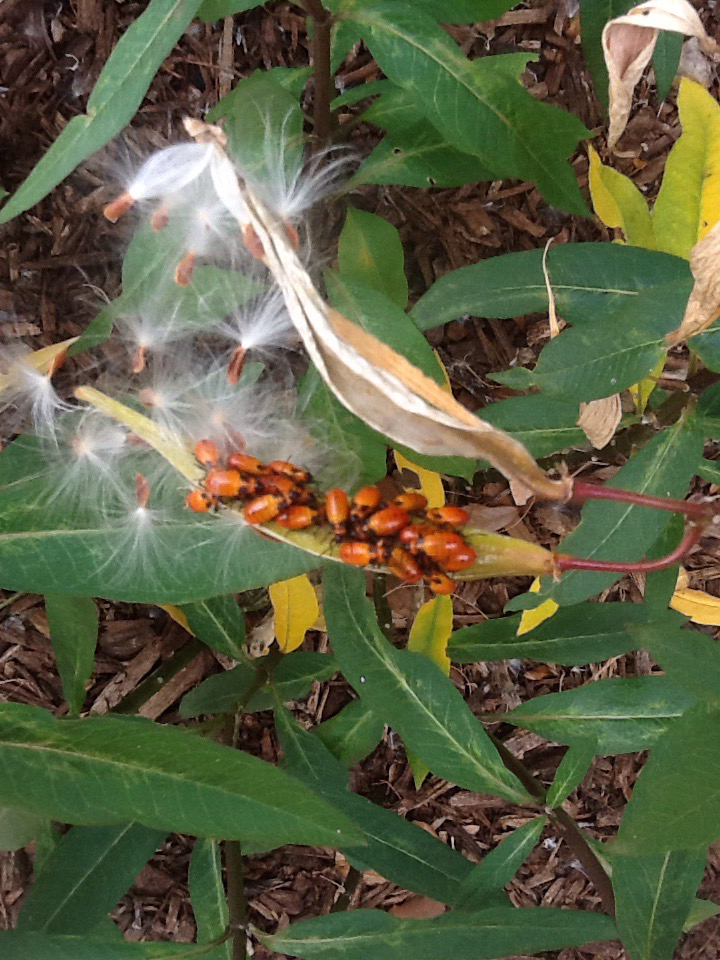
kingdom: Animalia
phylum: Arthropoda
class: Insecta
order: Hemiptera
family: Lygaeidae
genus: Oncopeltus
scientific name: Oncopeltus fasciatus
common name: Large milkweed bug
